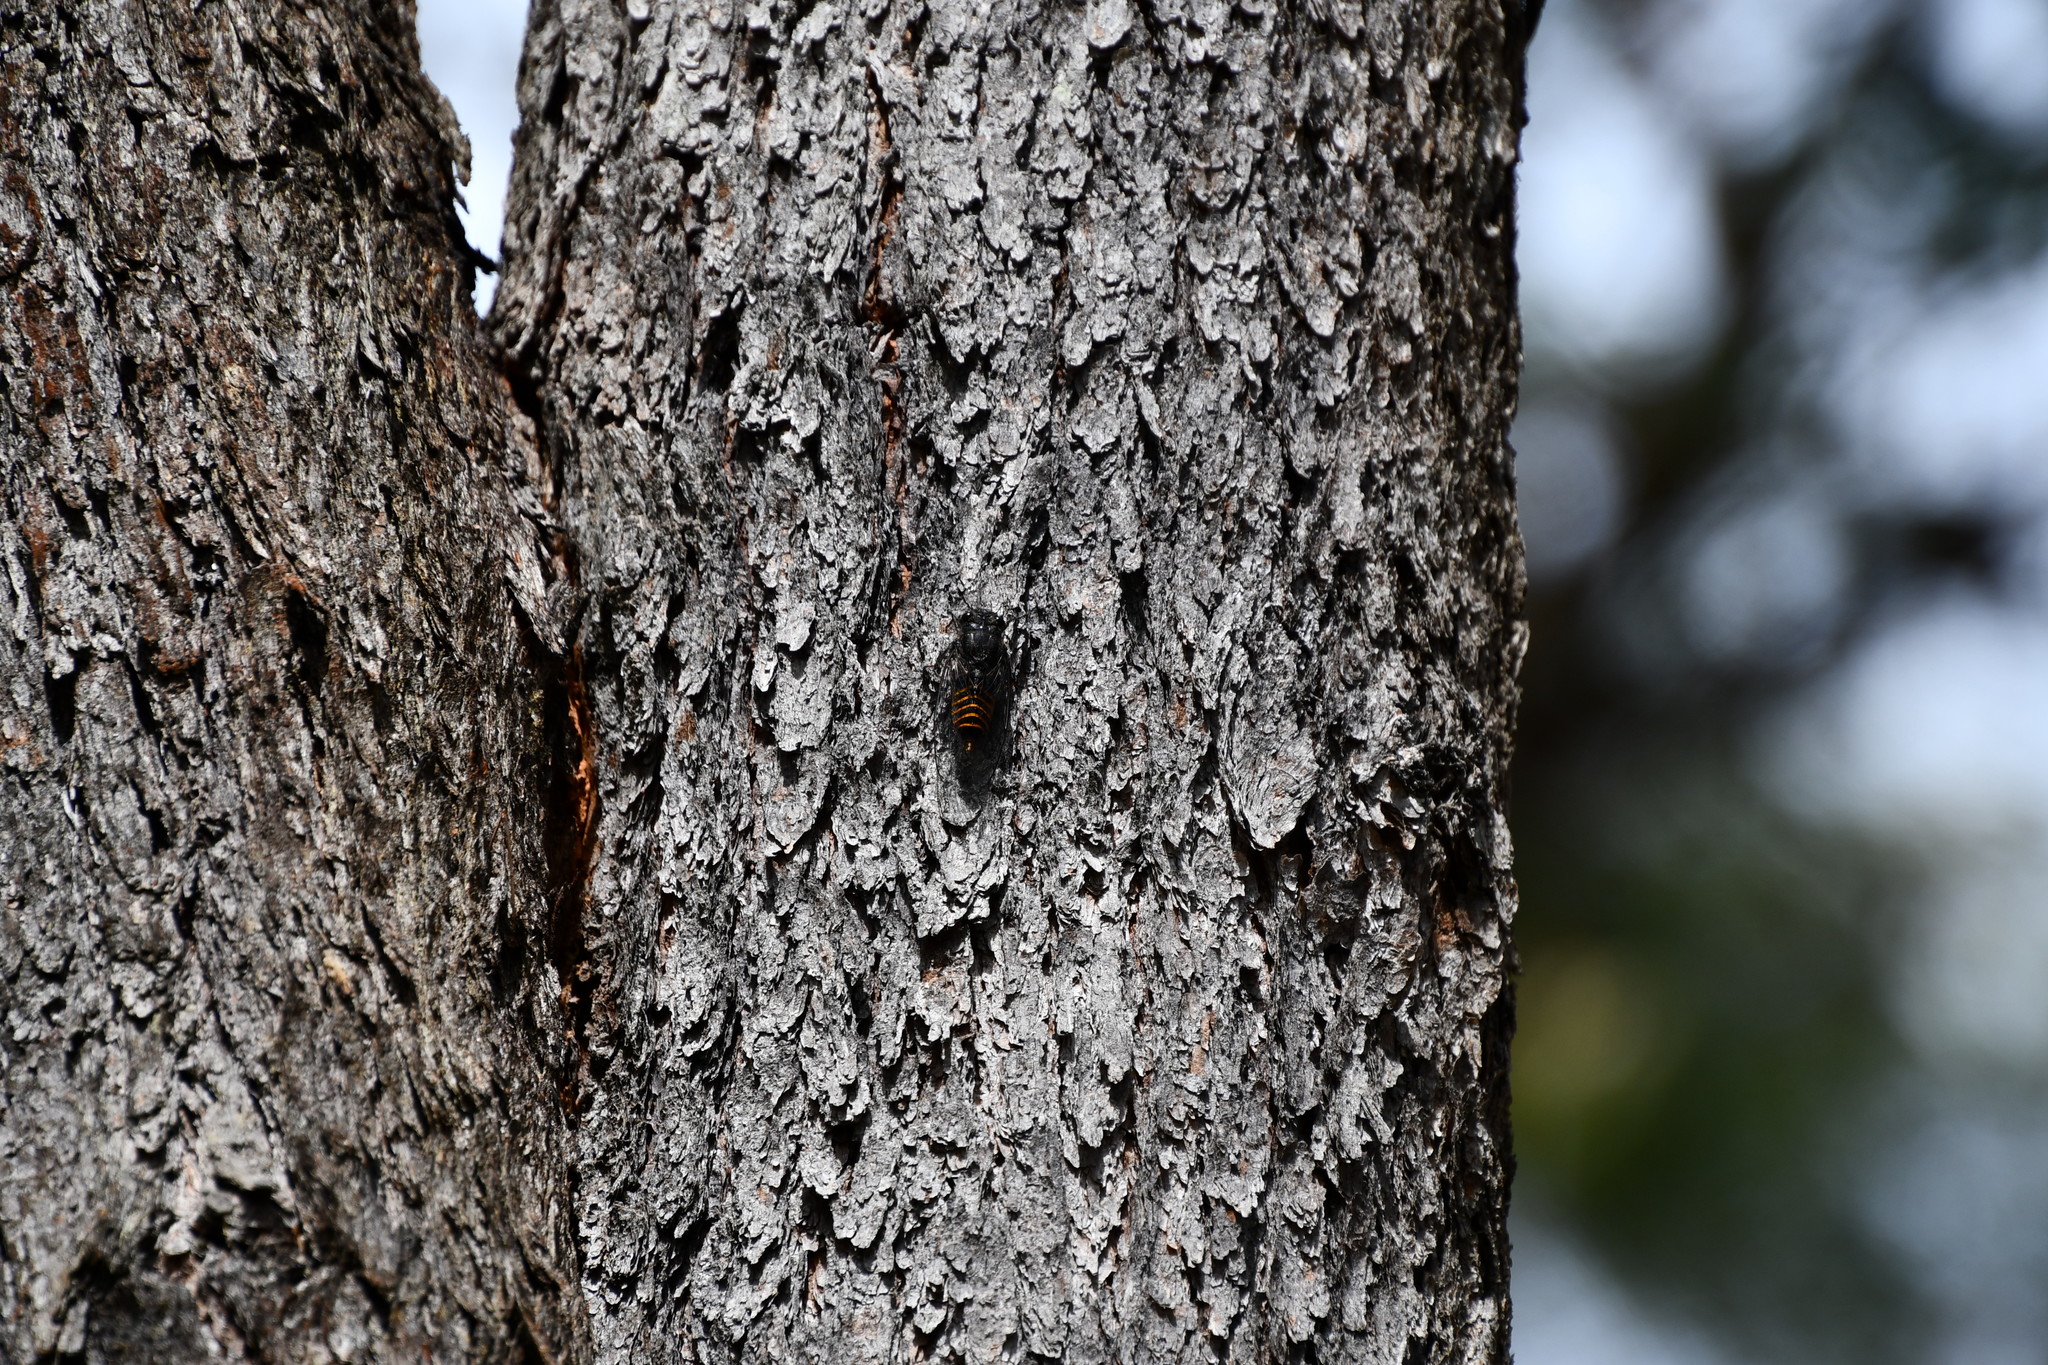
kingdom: Animalia
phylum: Arthropoda
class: Insecta
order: Hemiptera
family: Cicadidae
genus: Pauropsalta
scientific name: Pauropsalta mneme
